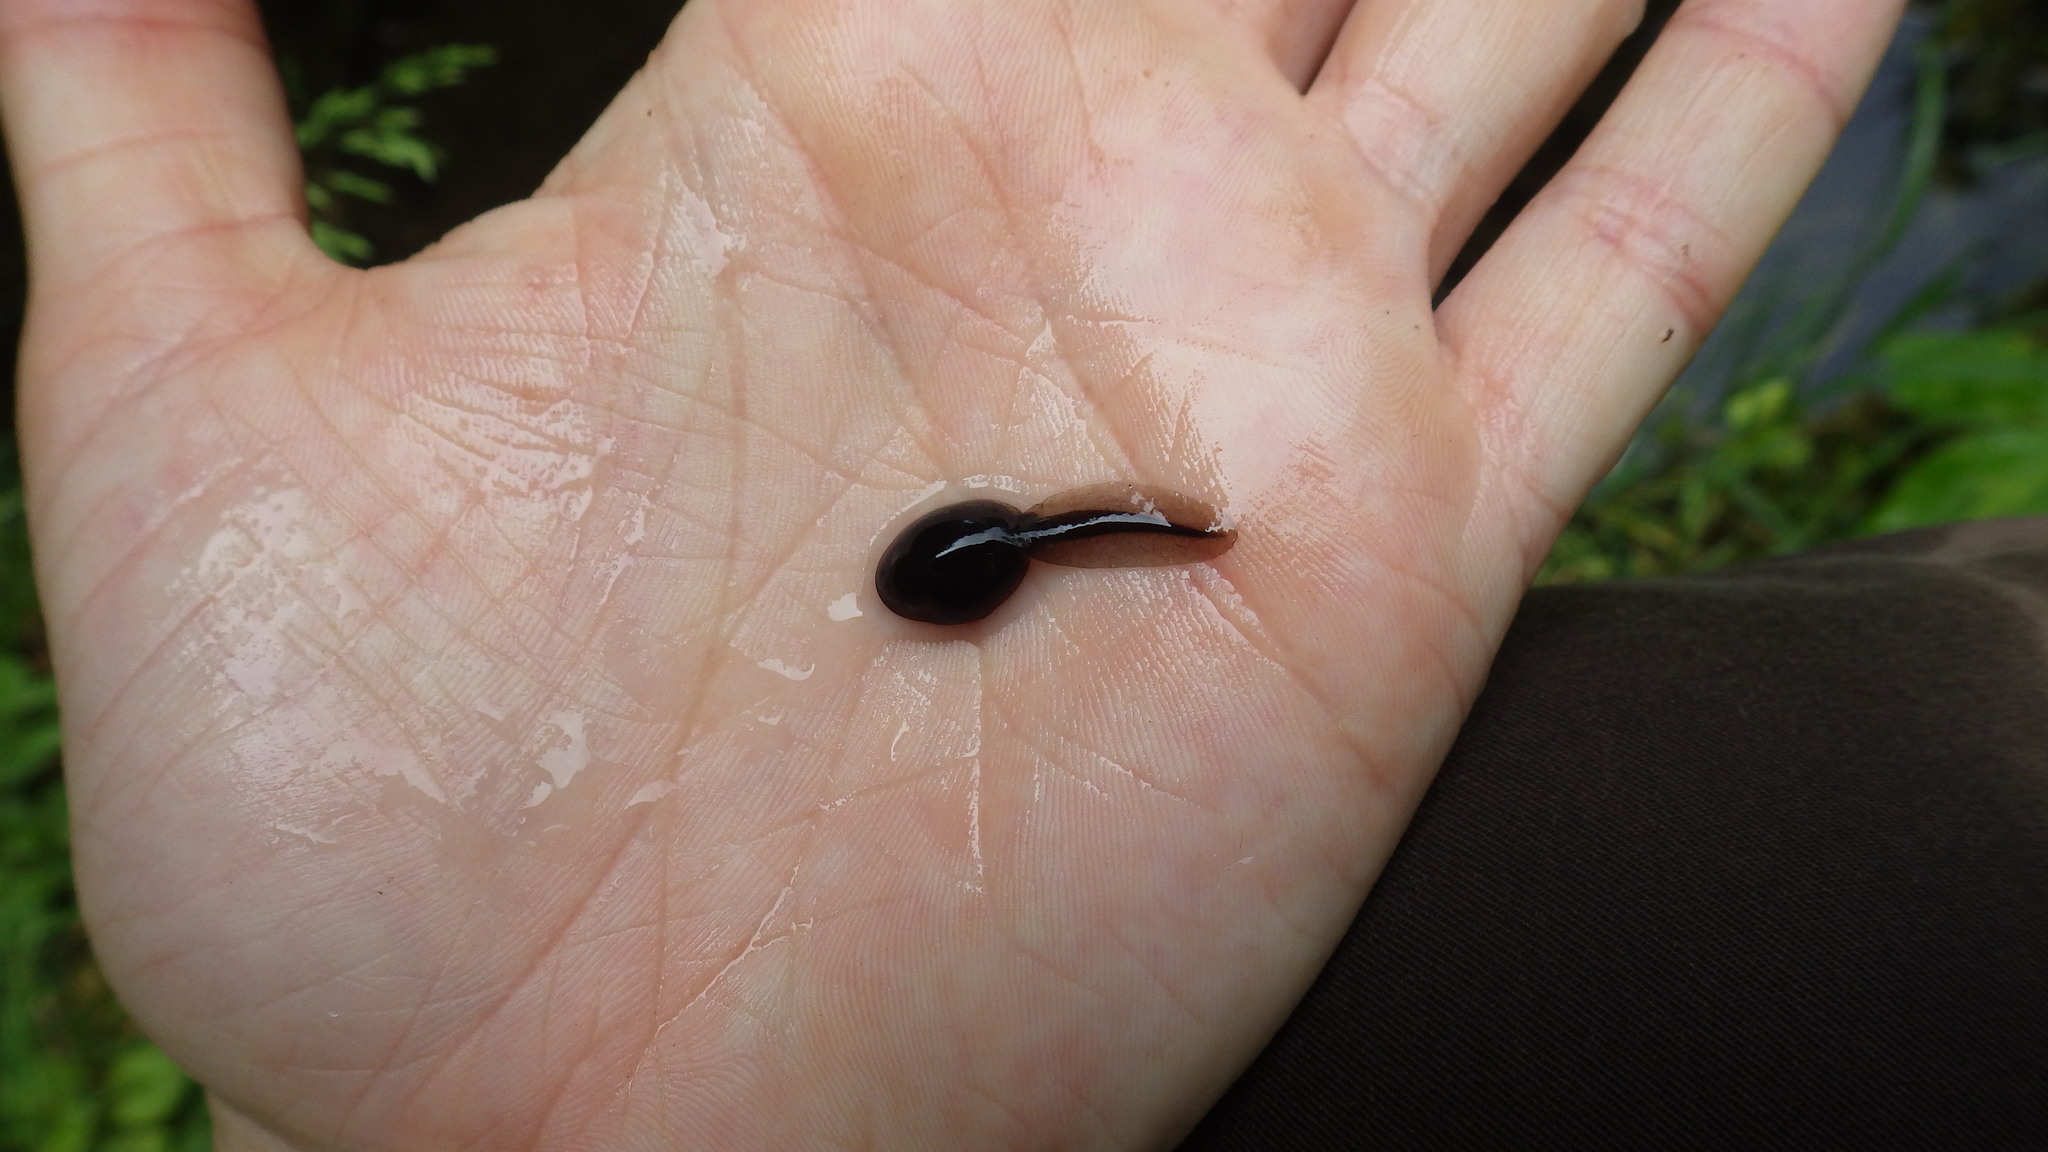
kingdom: Animalia
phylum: Chordata
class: Amphibia
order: Anura
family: Bufonidae
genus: Bufo
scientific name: Bufo bufo
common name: Common toad
